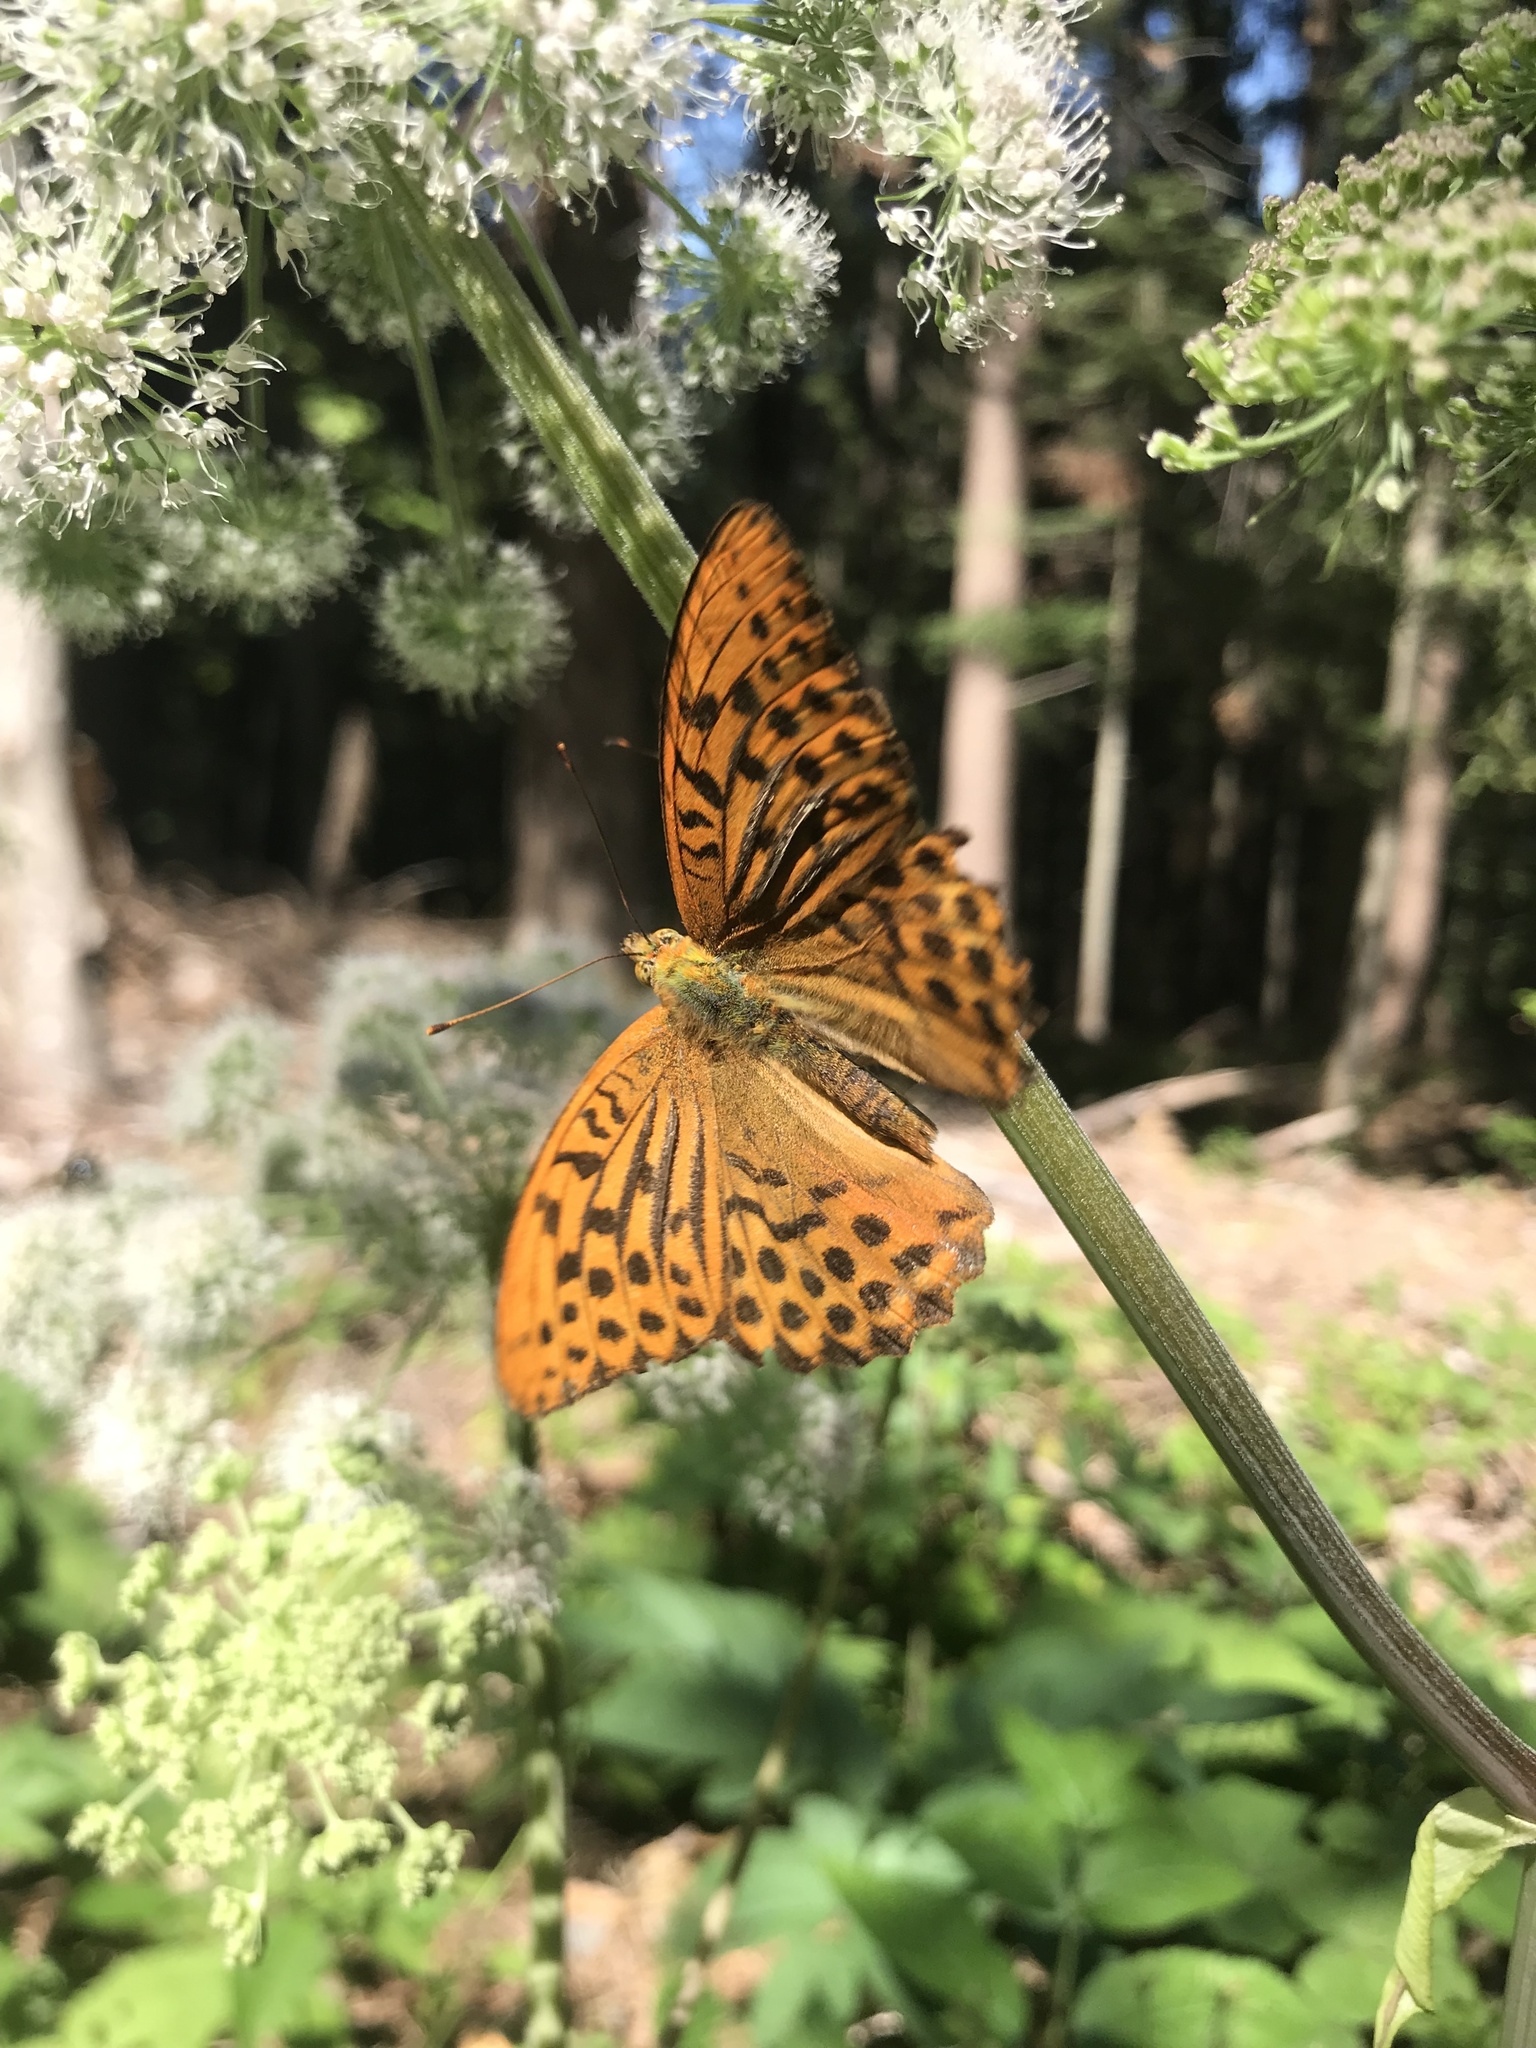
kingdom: Animalia
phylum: Arthropoda
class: Insecta
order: Lepidoptera
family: Nymphalidae
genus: Argynnis
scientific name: Argynnis paphia
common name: Silver-washed fritillary
